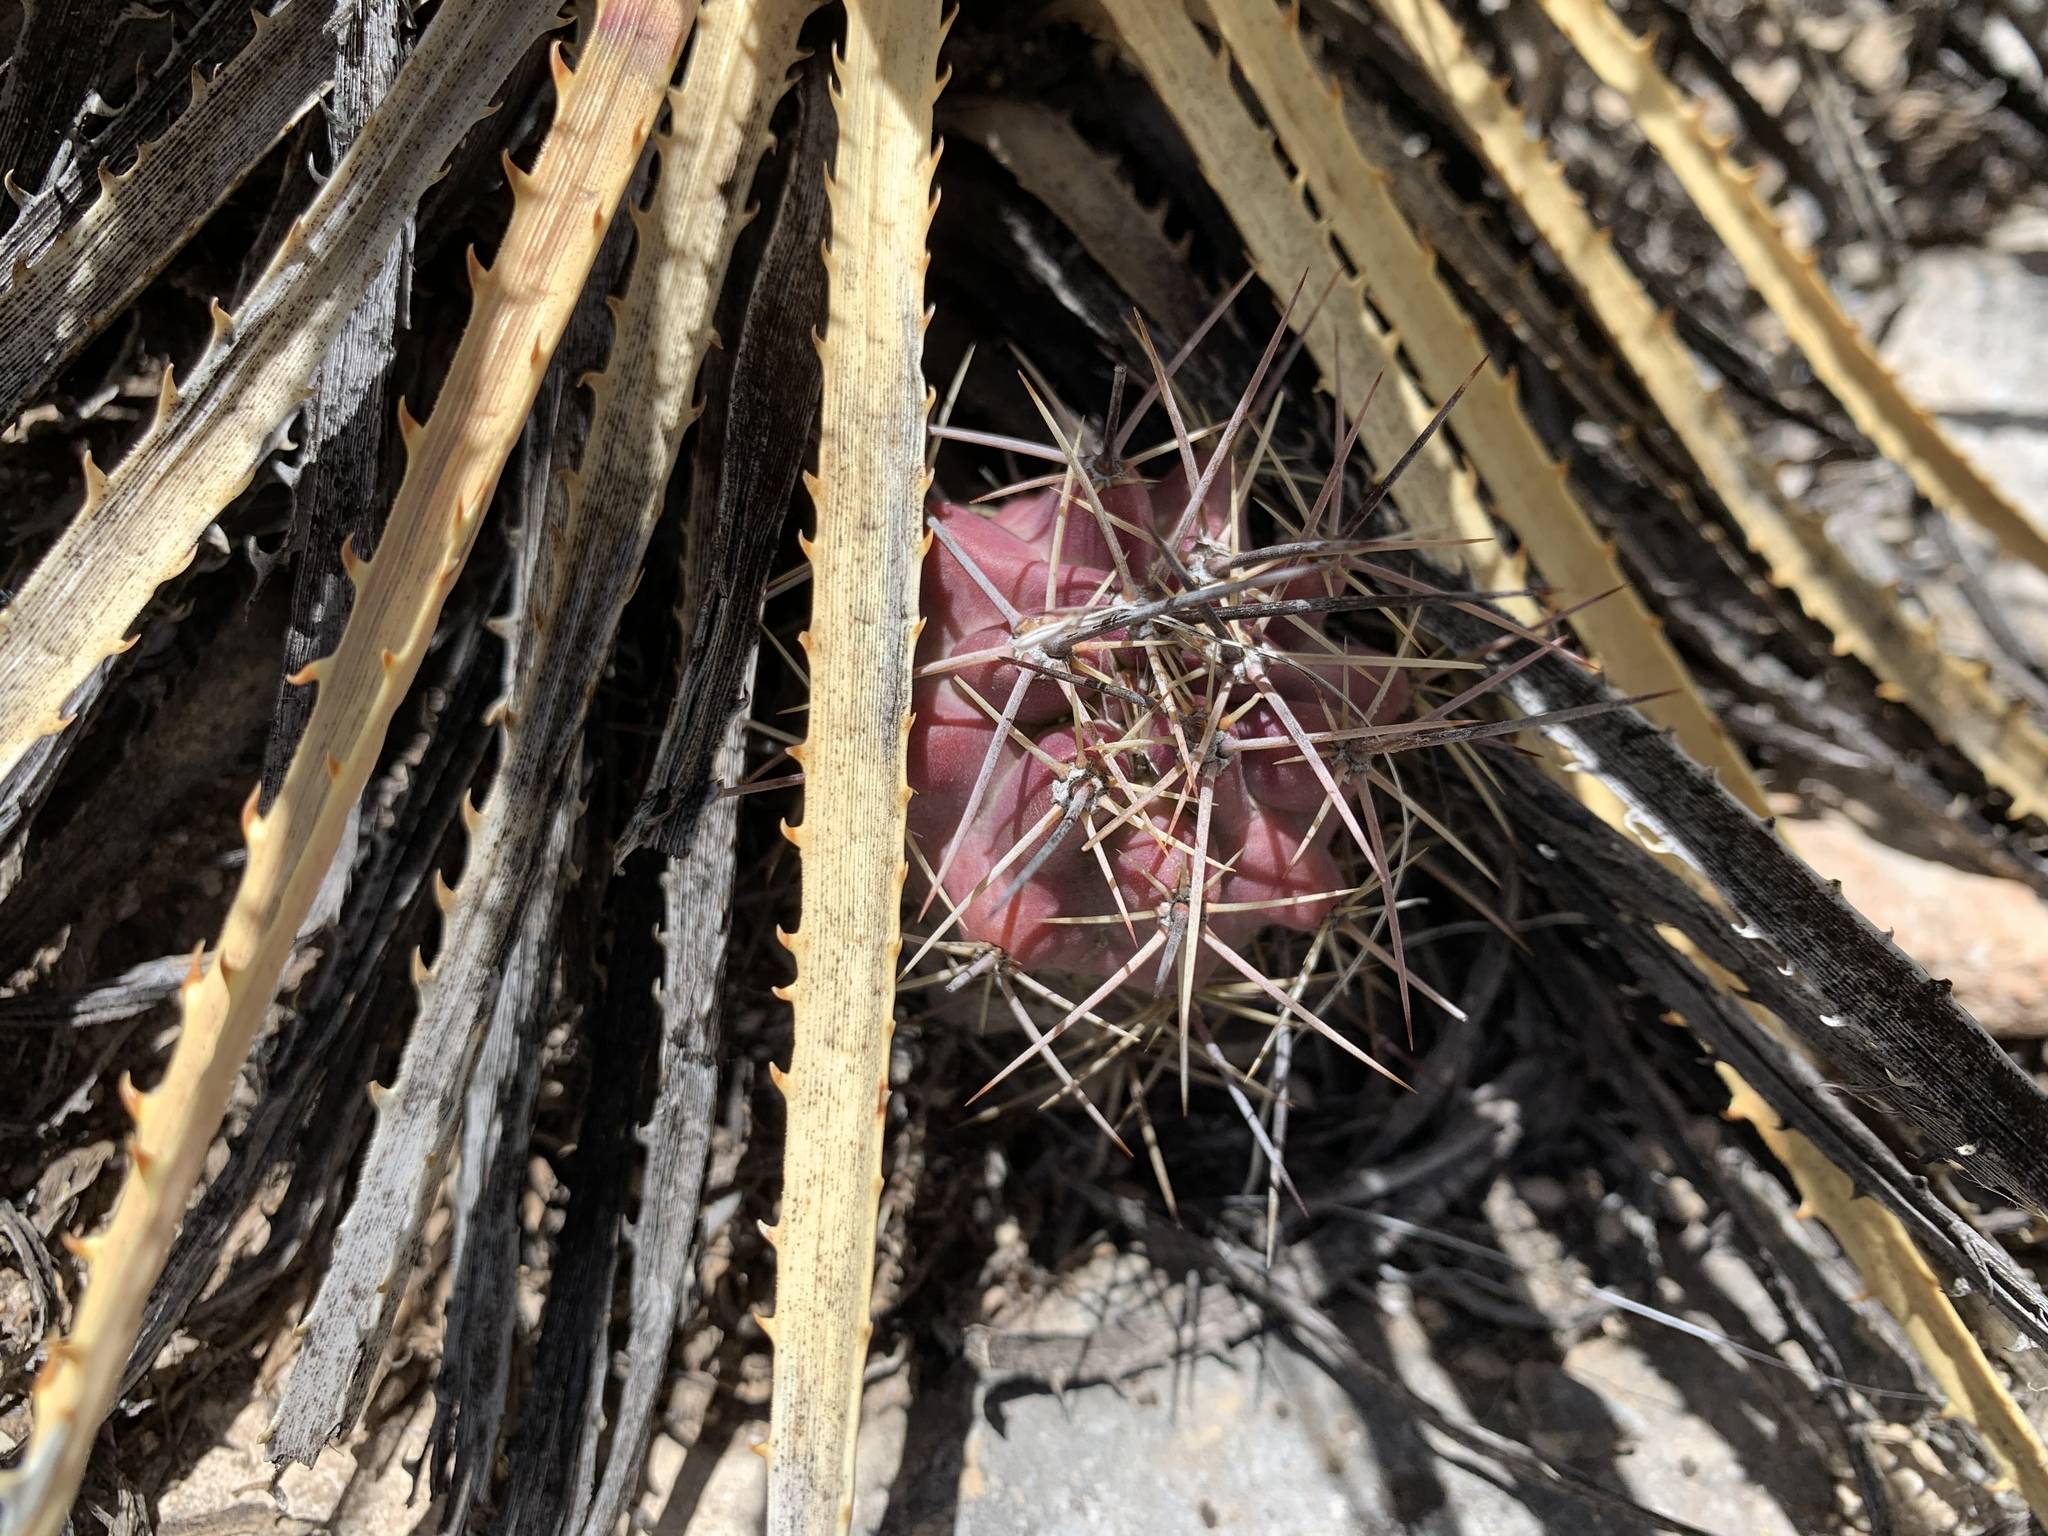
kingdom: Plantae
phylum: Tracheophyta
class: Magnoliopsida
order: Caryophyllales
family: Cactaceae
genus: Echinocereus
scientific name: Echinocereus coccineus
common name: Scarlet hedgehog cactus
